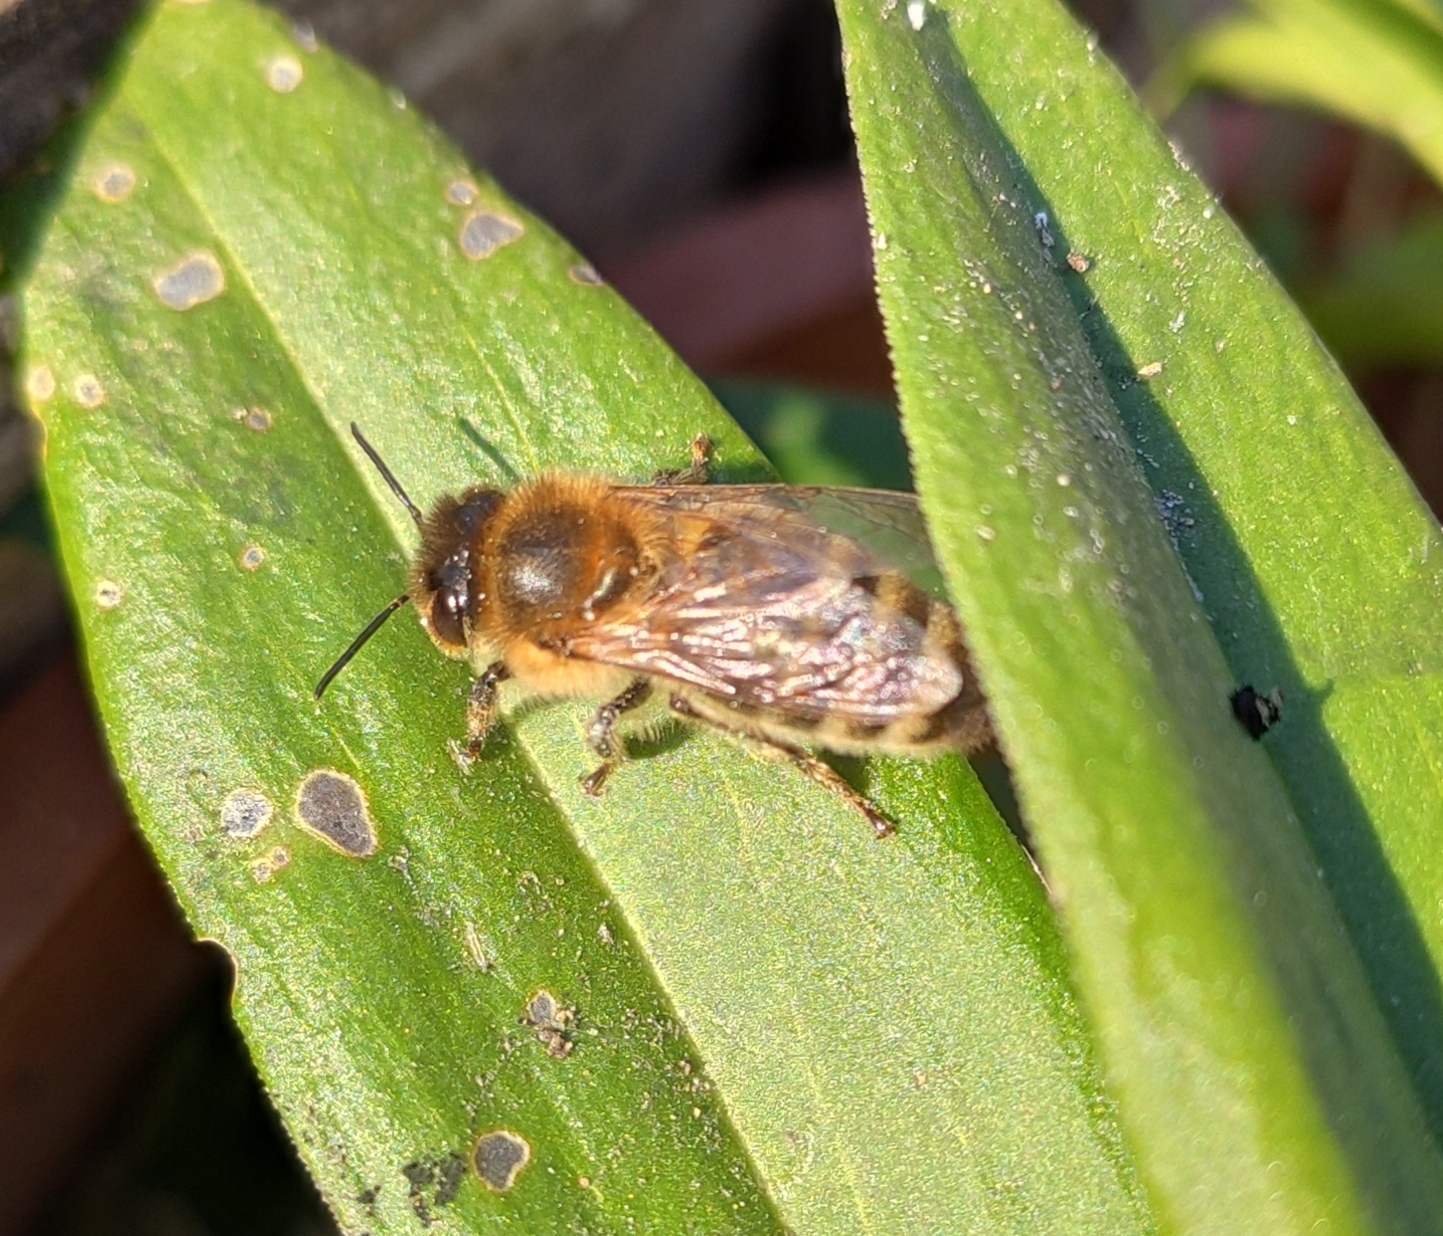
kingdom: Animalia
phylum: Arthropoda
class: Insecta
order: Hymenoptera
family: Apidae
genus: Apis
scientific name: Apis mellifera
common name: Honey bee
